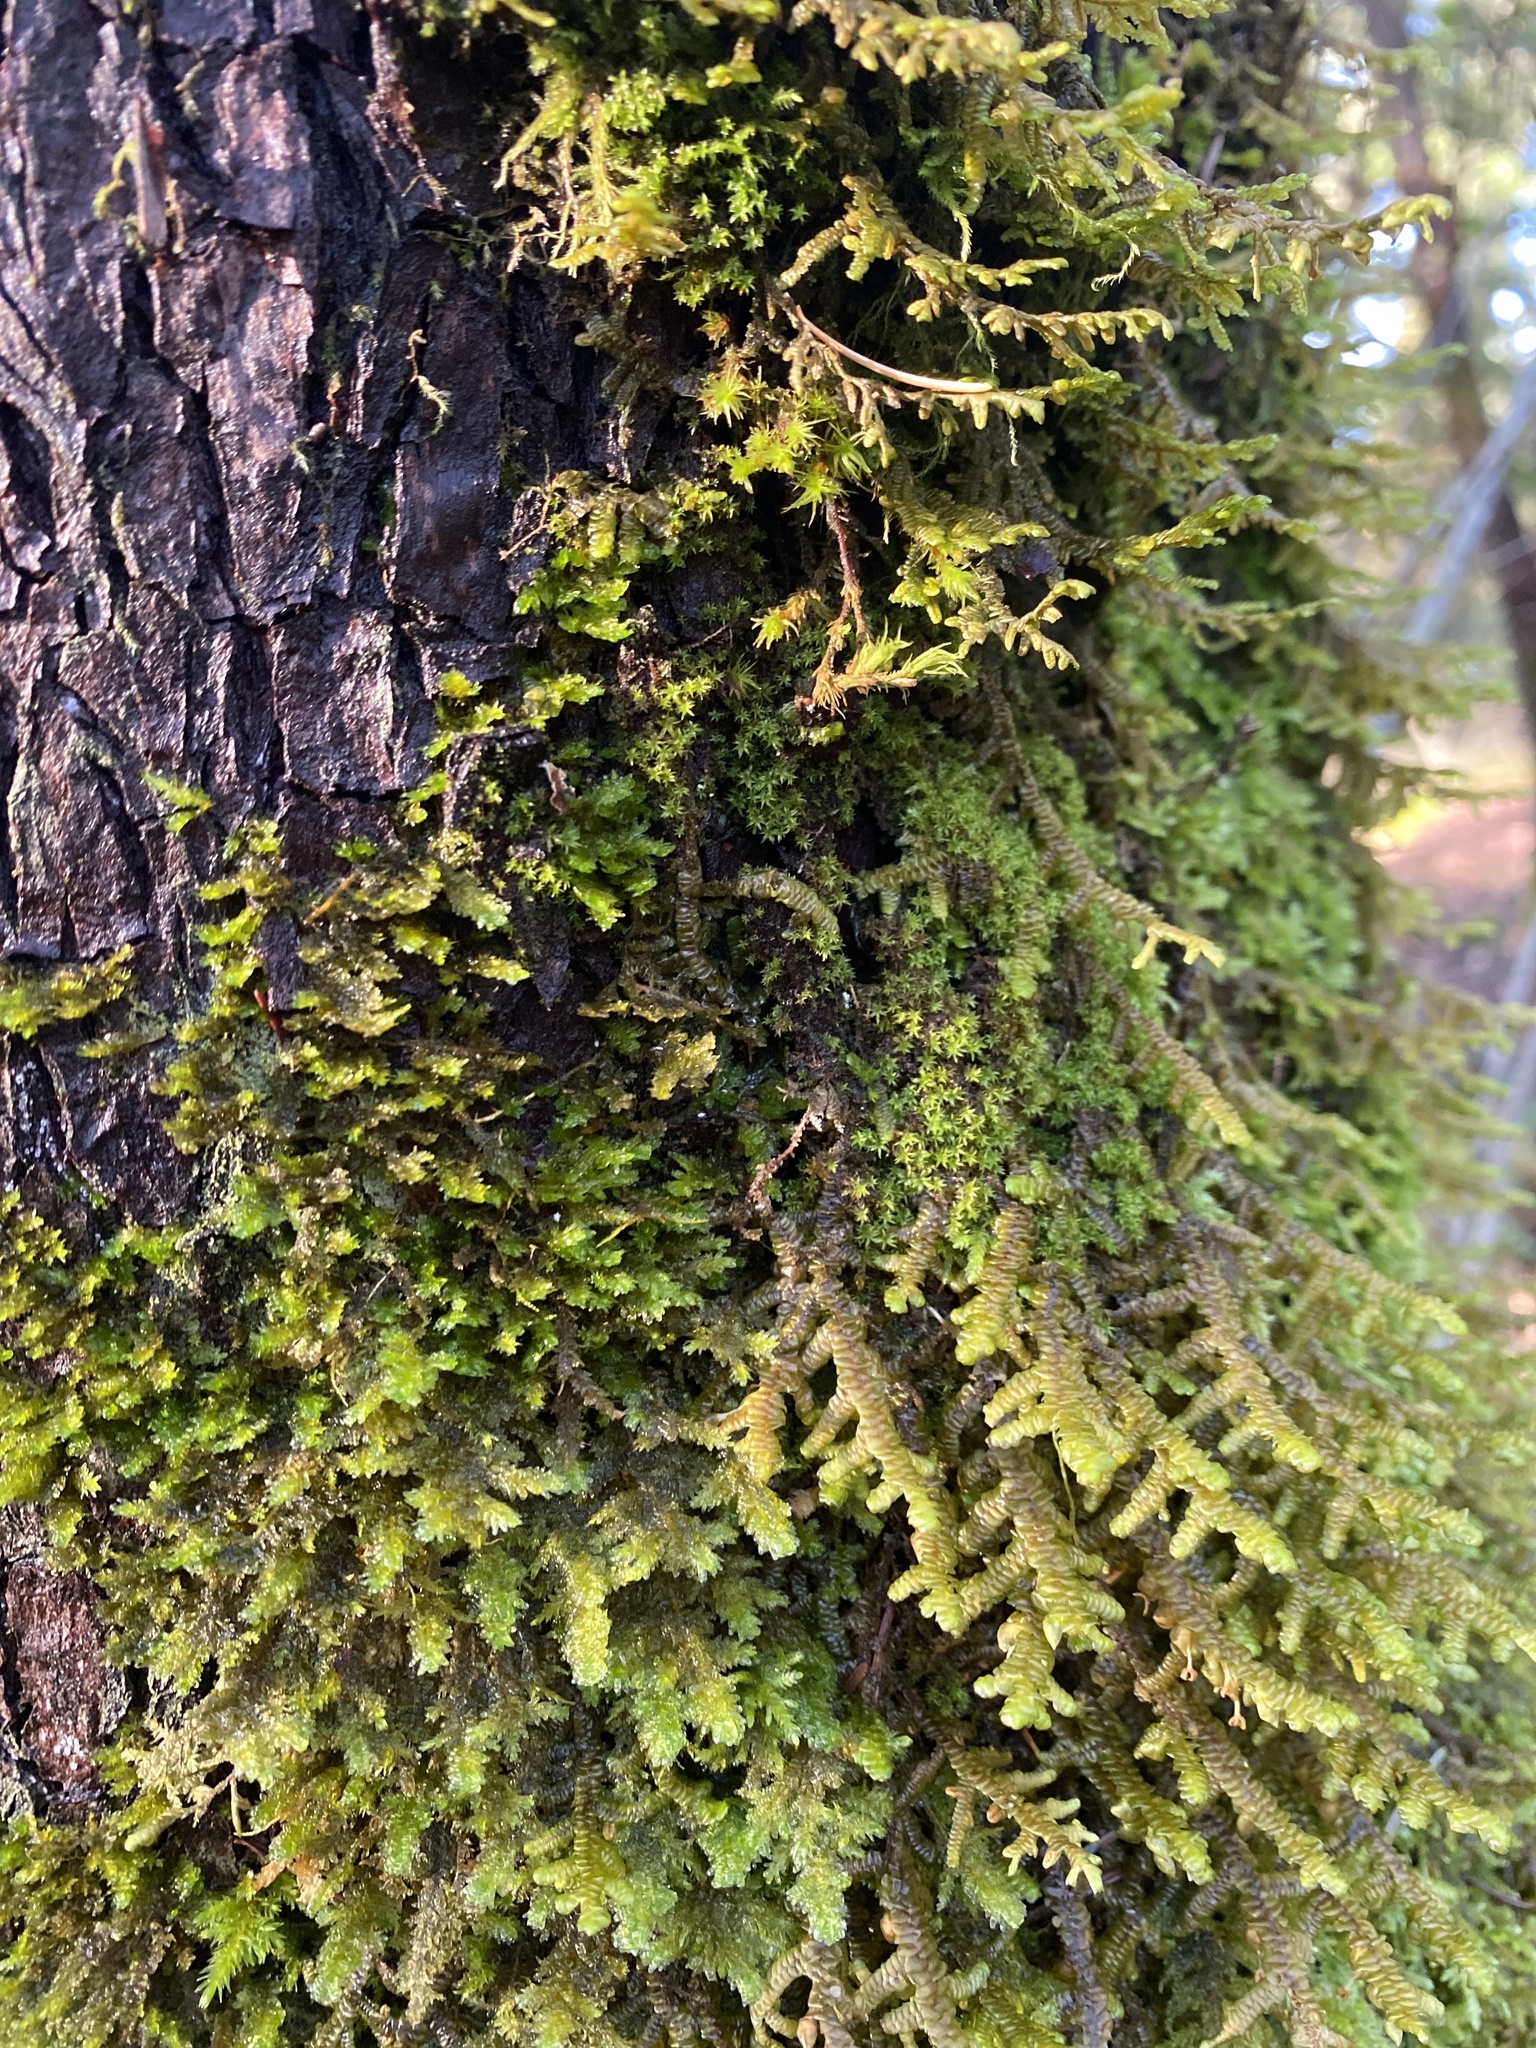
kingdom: Plantae
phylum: Marchantiophyta
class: Jungermanniopsida
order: Porellales
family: Porellaceae
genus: Porella
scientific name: Porella navicularis
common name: Tree ruffle liverwort
